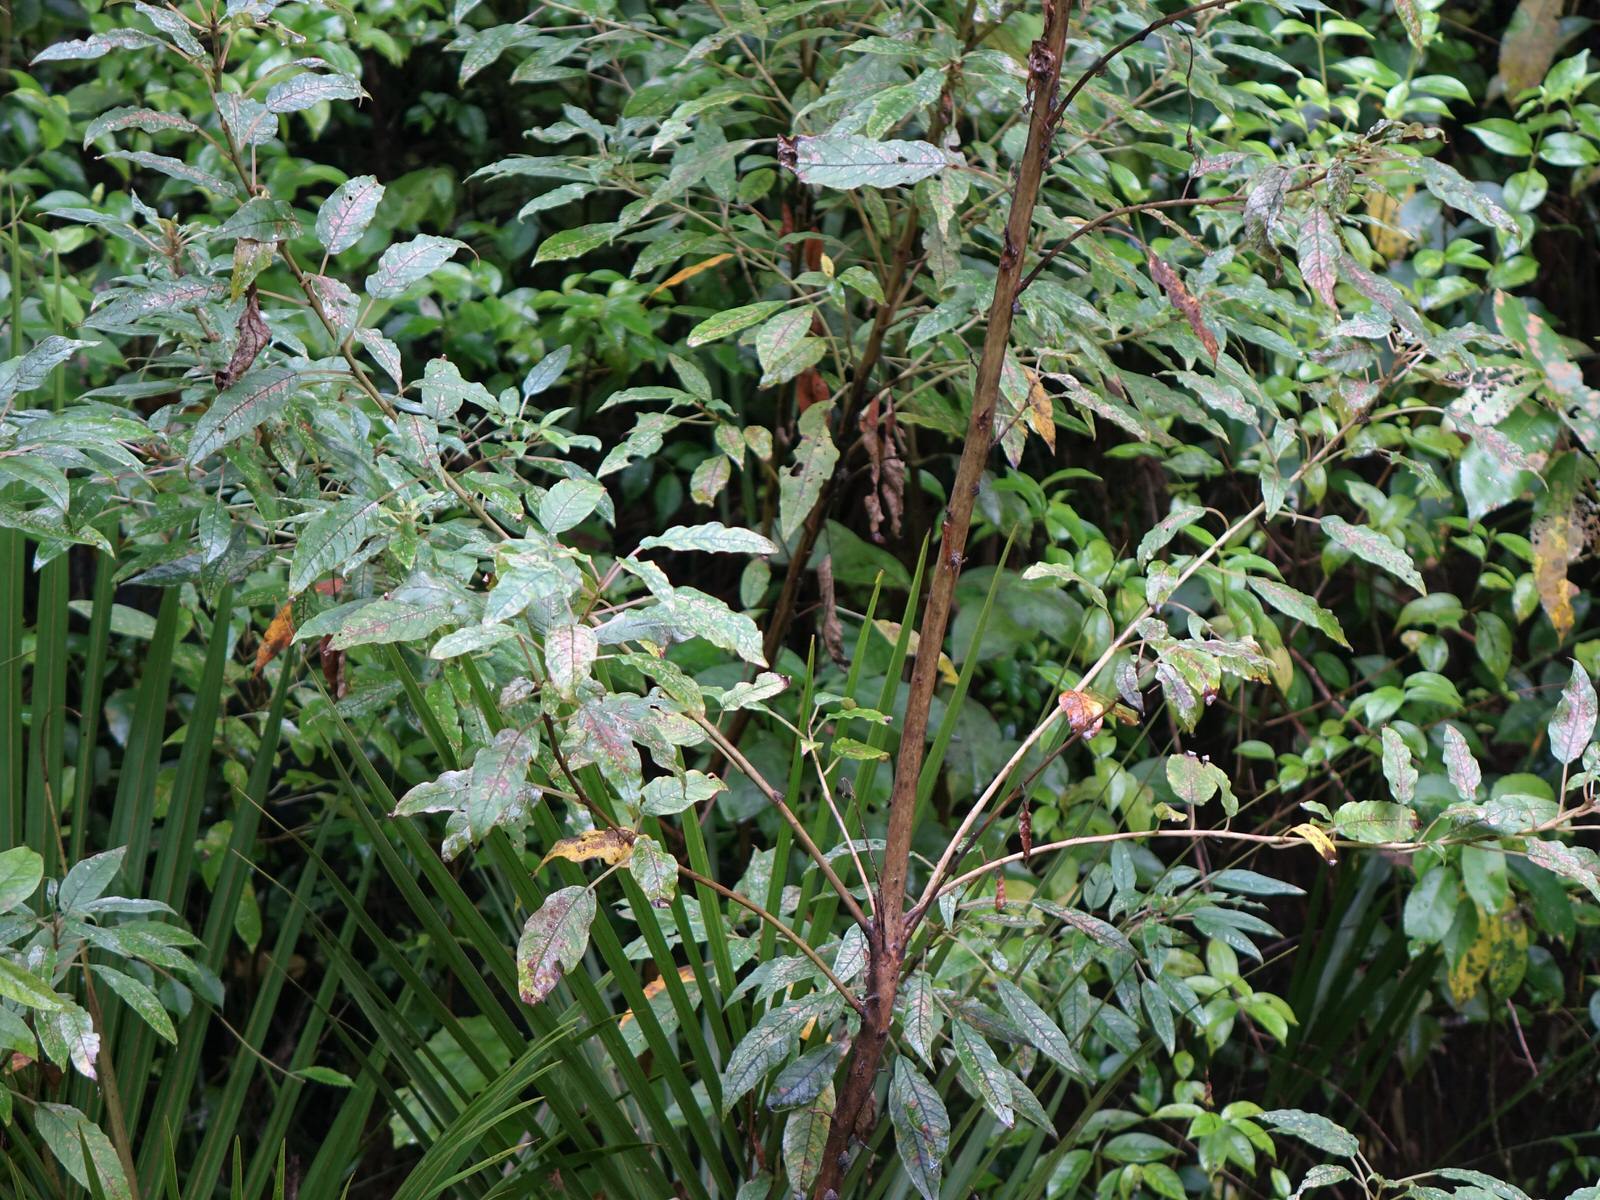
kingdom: Plantae
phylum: Tracheophyta
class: Magnoliopsida
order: Myrtales
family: Onagraceae
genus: Fuchsia
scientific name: Fuchsia excorticata
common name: Tree fuchsia
